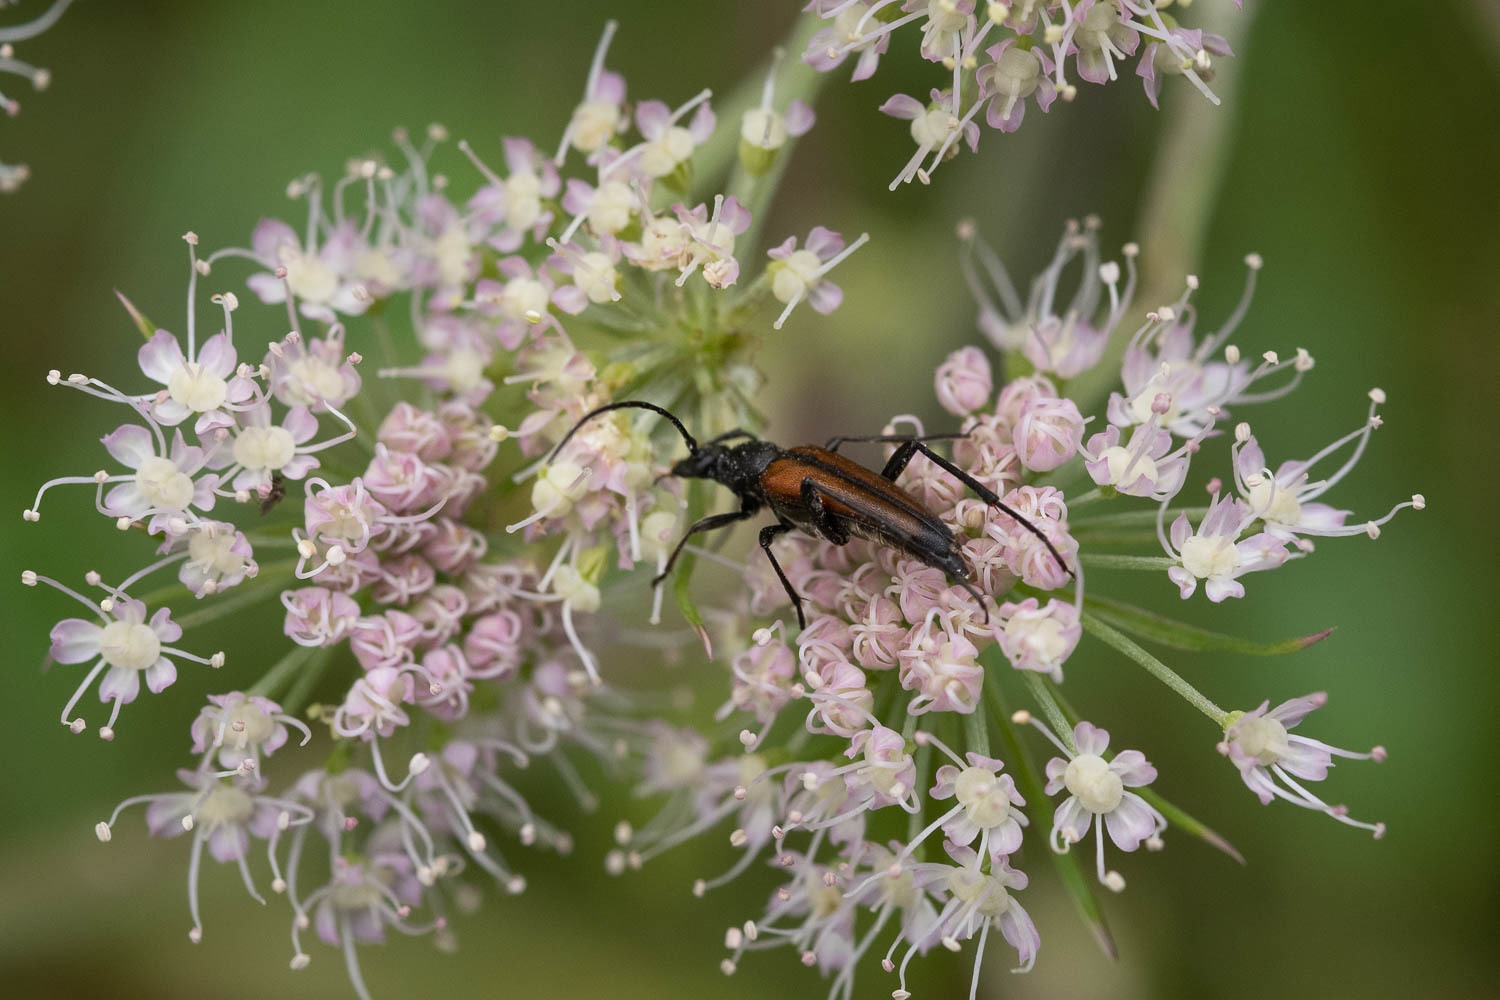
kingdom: Animalia
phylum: Arthropoda
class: Insecta
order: Coleoptera
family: Cerambycidae
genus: Stenurella
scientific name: Stenurella melanura
